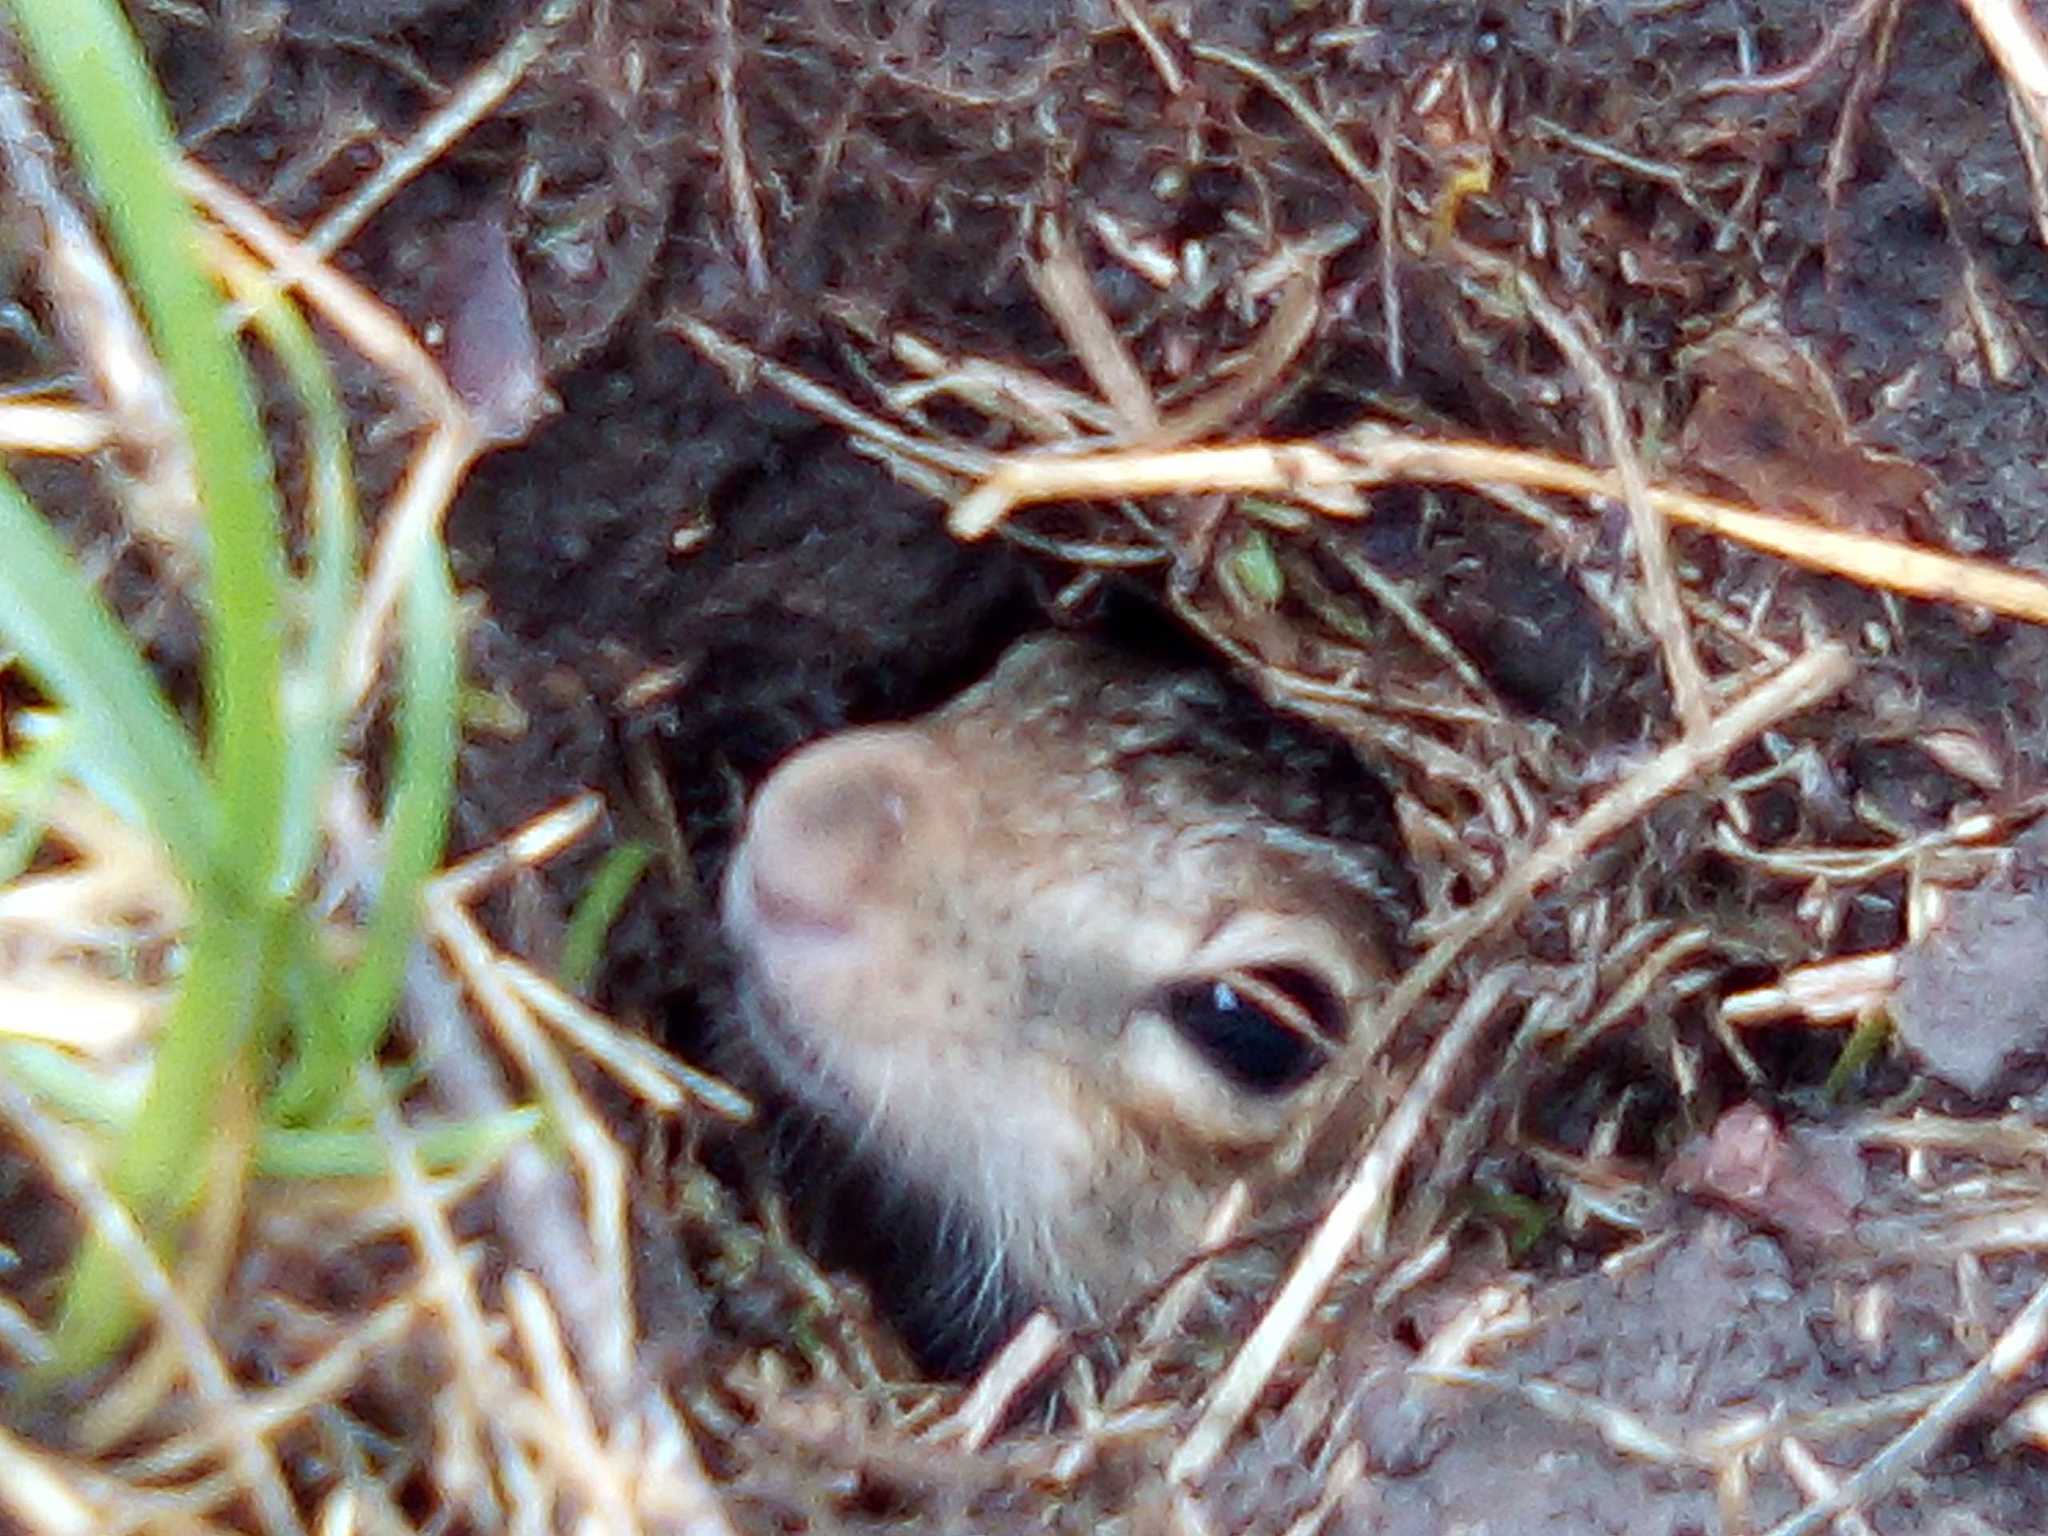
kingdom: Animalia
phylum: Chordata
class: Mammalia
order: Rodentia
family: Sciuridae
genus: Ictidomys
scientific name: Ictidomys tridecemlineatus
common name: Thirteen-lined ground squirrel
